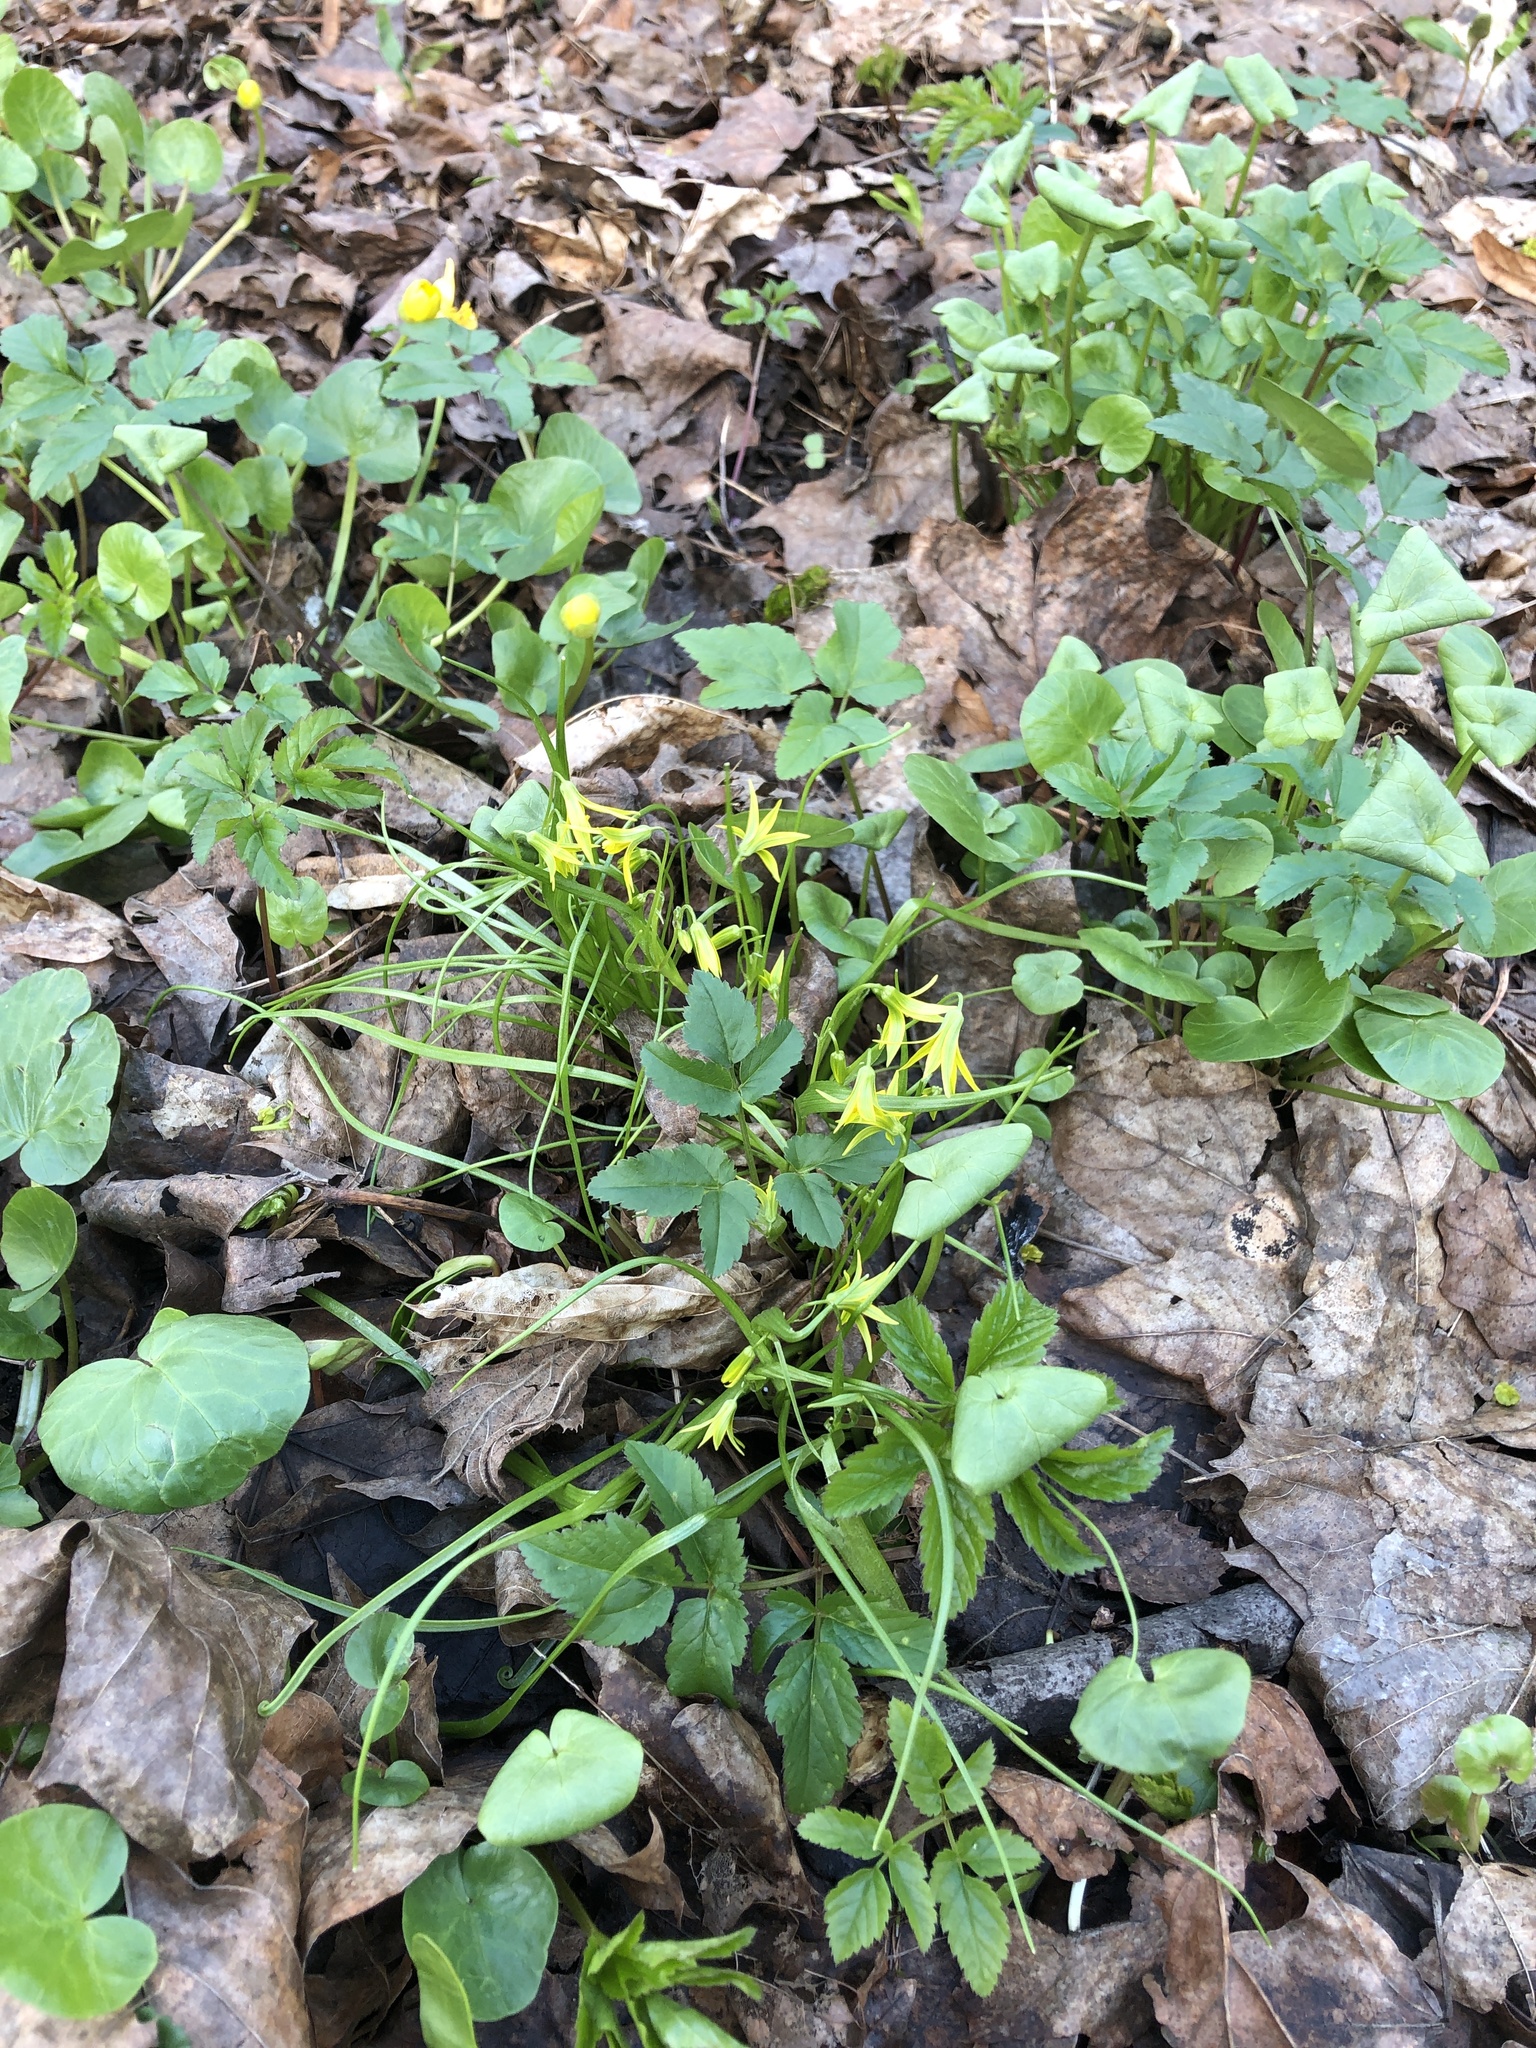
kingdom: Plantae
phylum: Tracheophyta
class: Liliopsida
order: Liliales
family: Liliaceae
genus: Gagea
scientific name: Gagea minima
